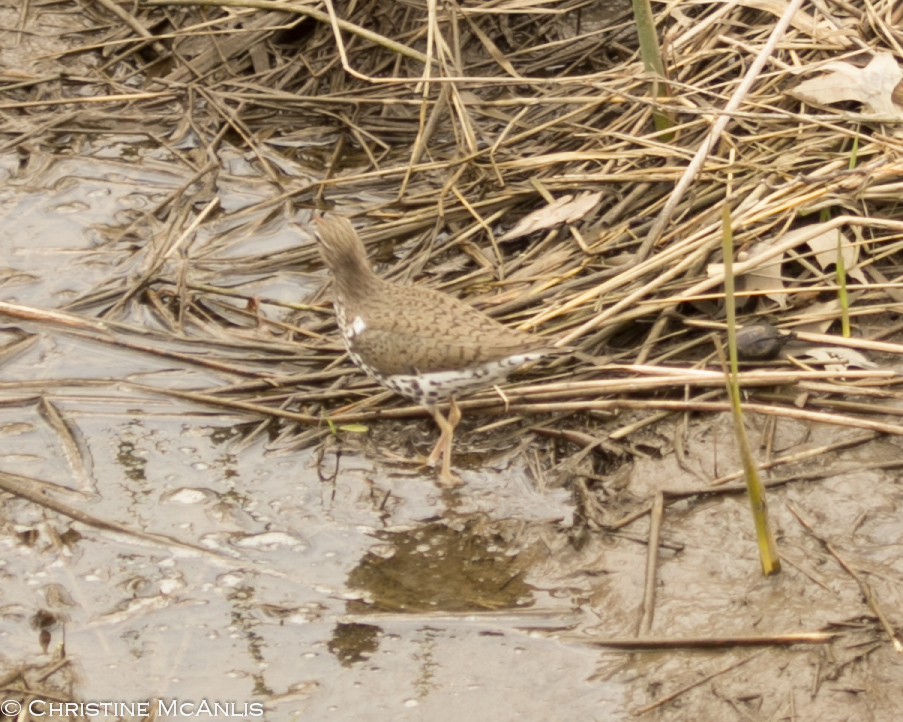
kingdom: Animalia
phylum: Chordata
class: Aves
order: Charadriiformes
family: Scolopacidae
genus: Actitis
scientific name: Actitis macularius
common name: Spotted sandpiper
